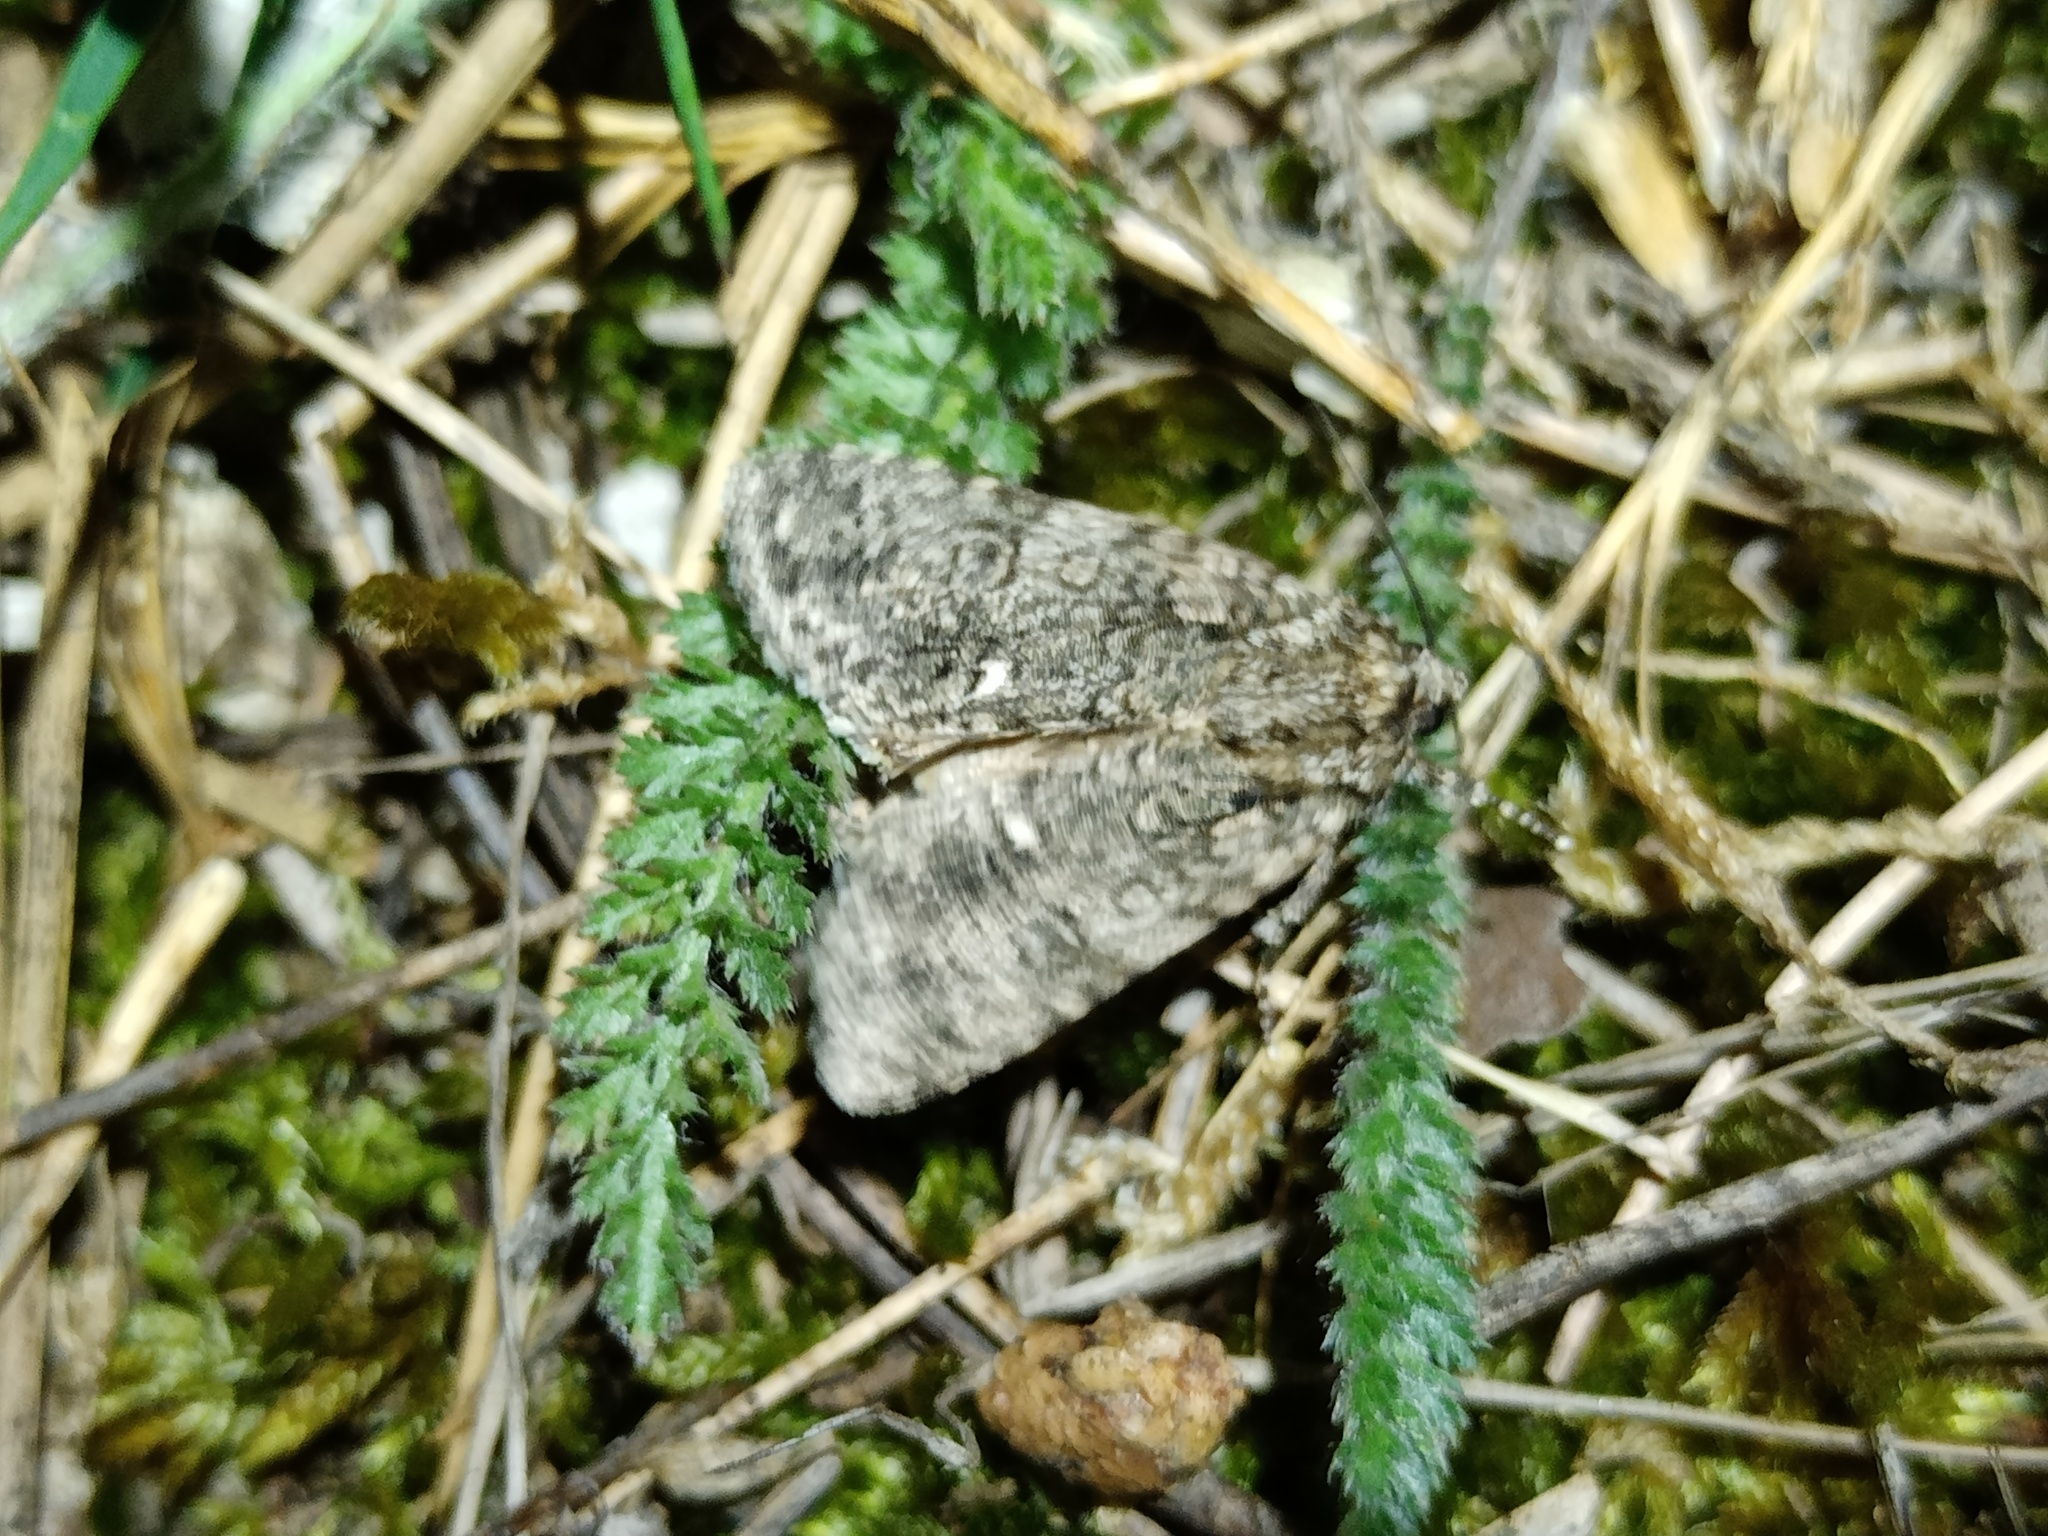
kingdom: Animalia
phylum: Arthropoda
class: Insecta
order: Lepidoptera
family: Noctuidae
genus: Acronicta
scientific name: Acronicta rumicis
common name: Knot grass
